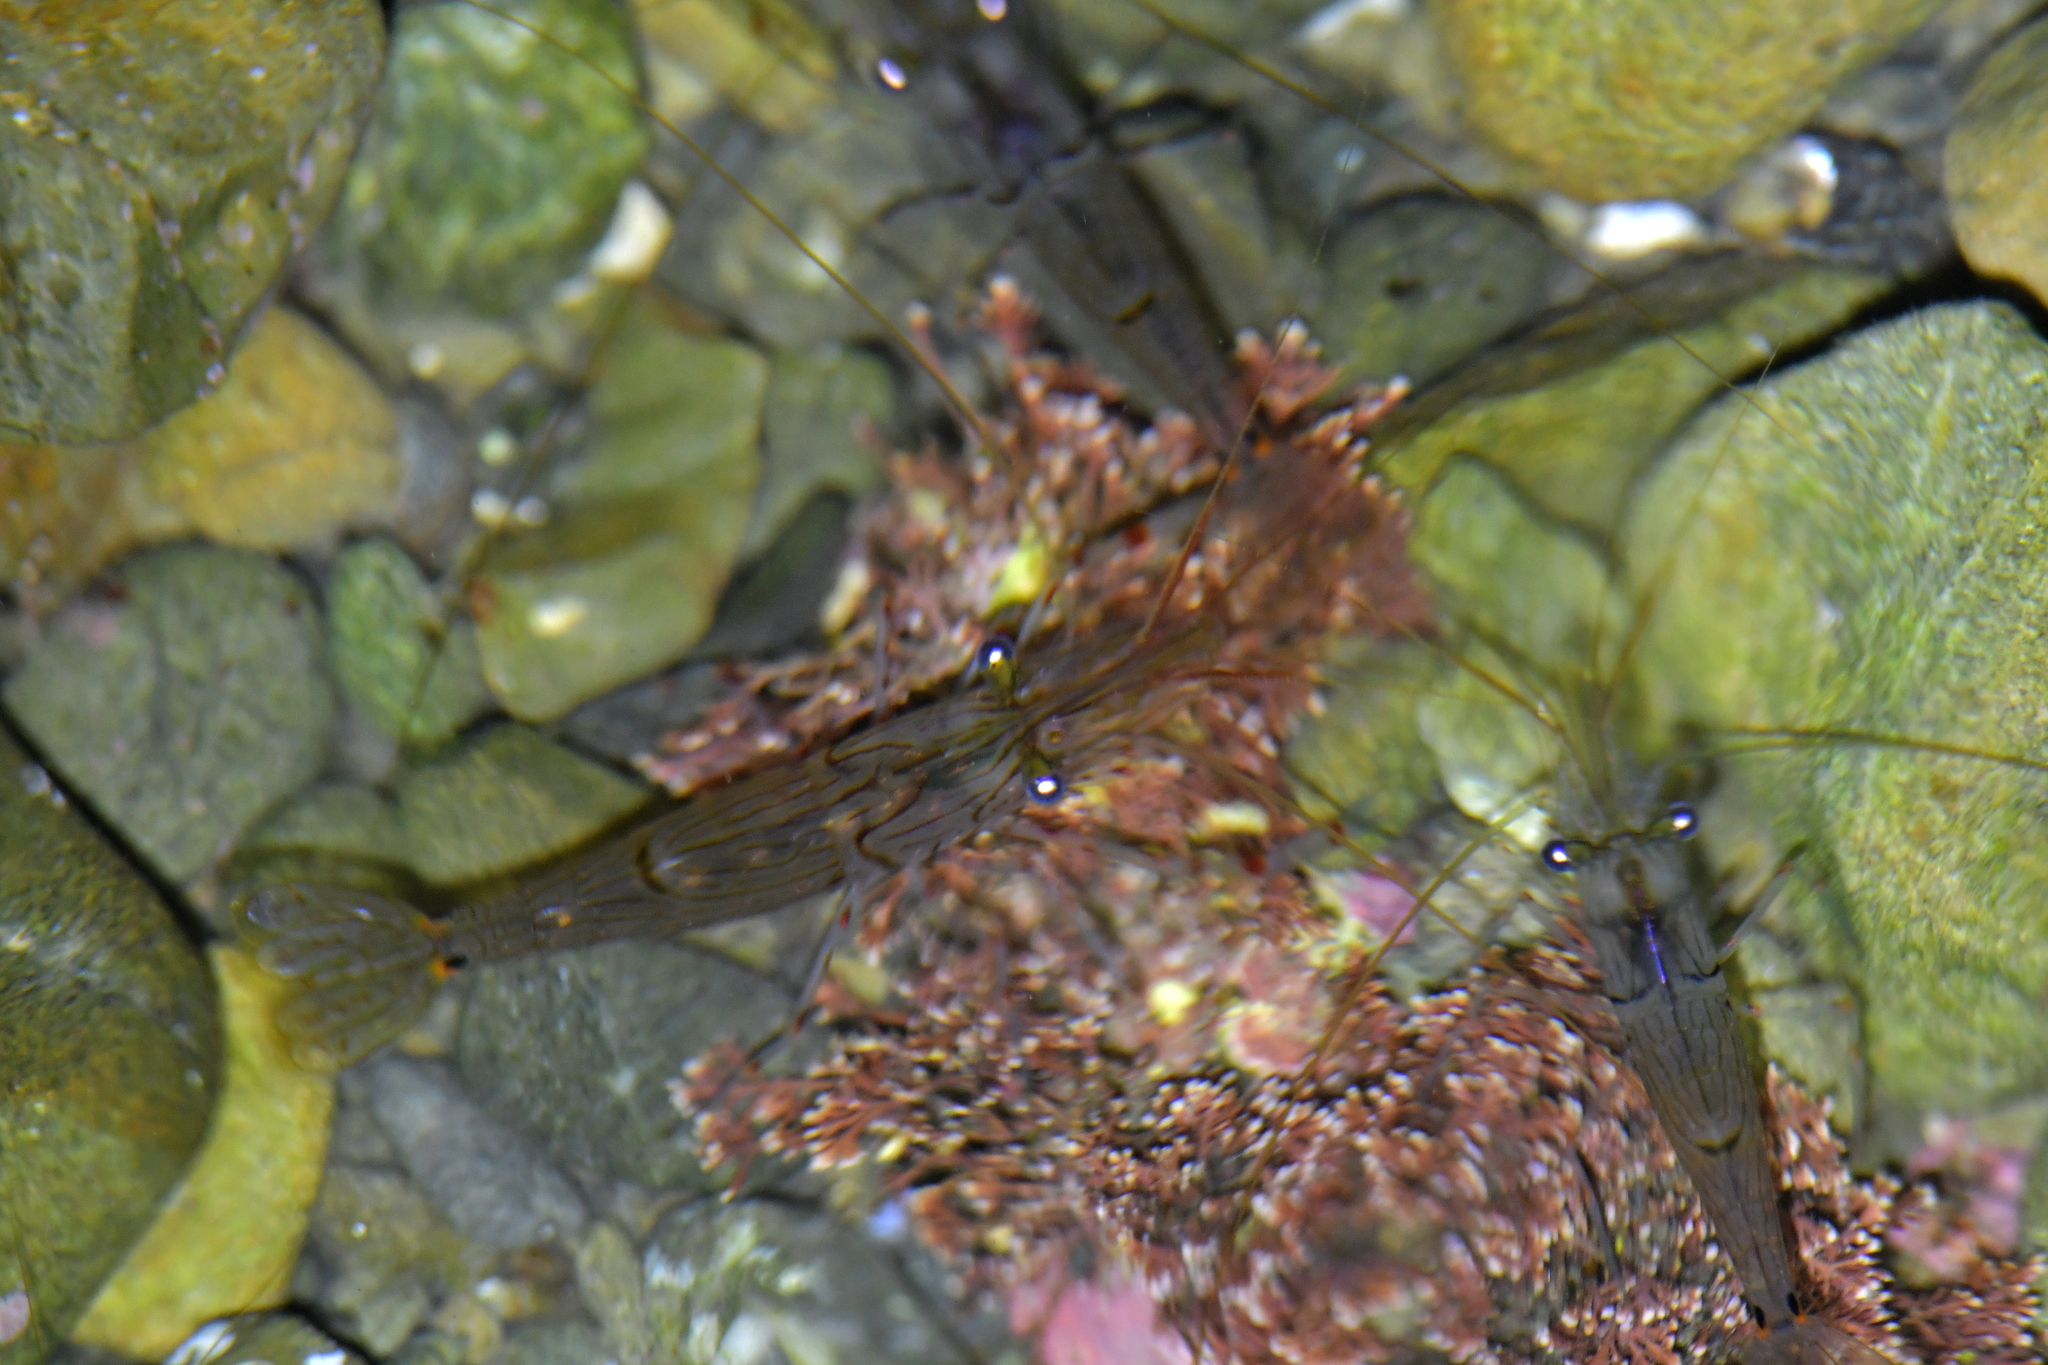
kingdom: Animalia
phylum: Arthropoda
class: Malacostraca
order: Decapoda
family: Palaemonidae
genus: Palaemon
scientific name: Palaemon affinis
